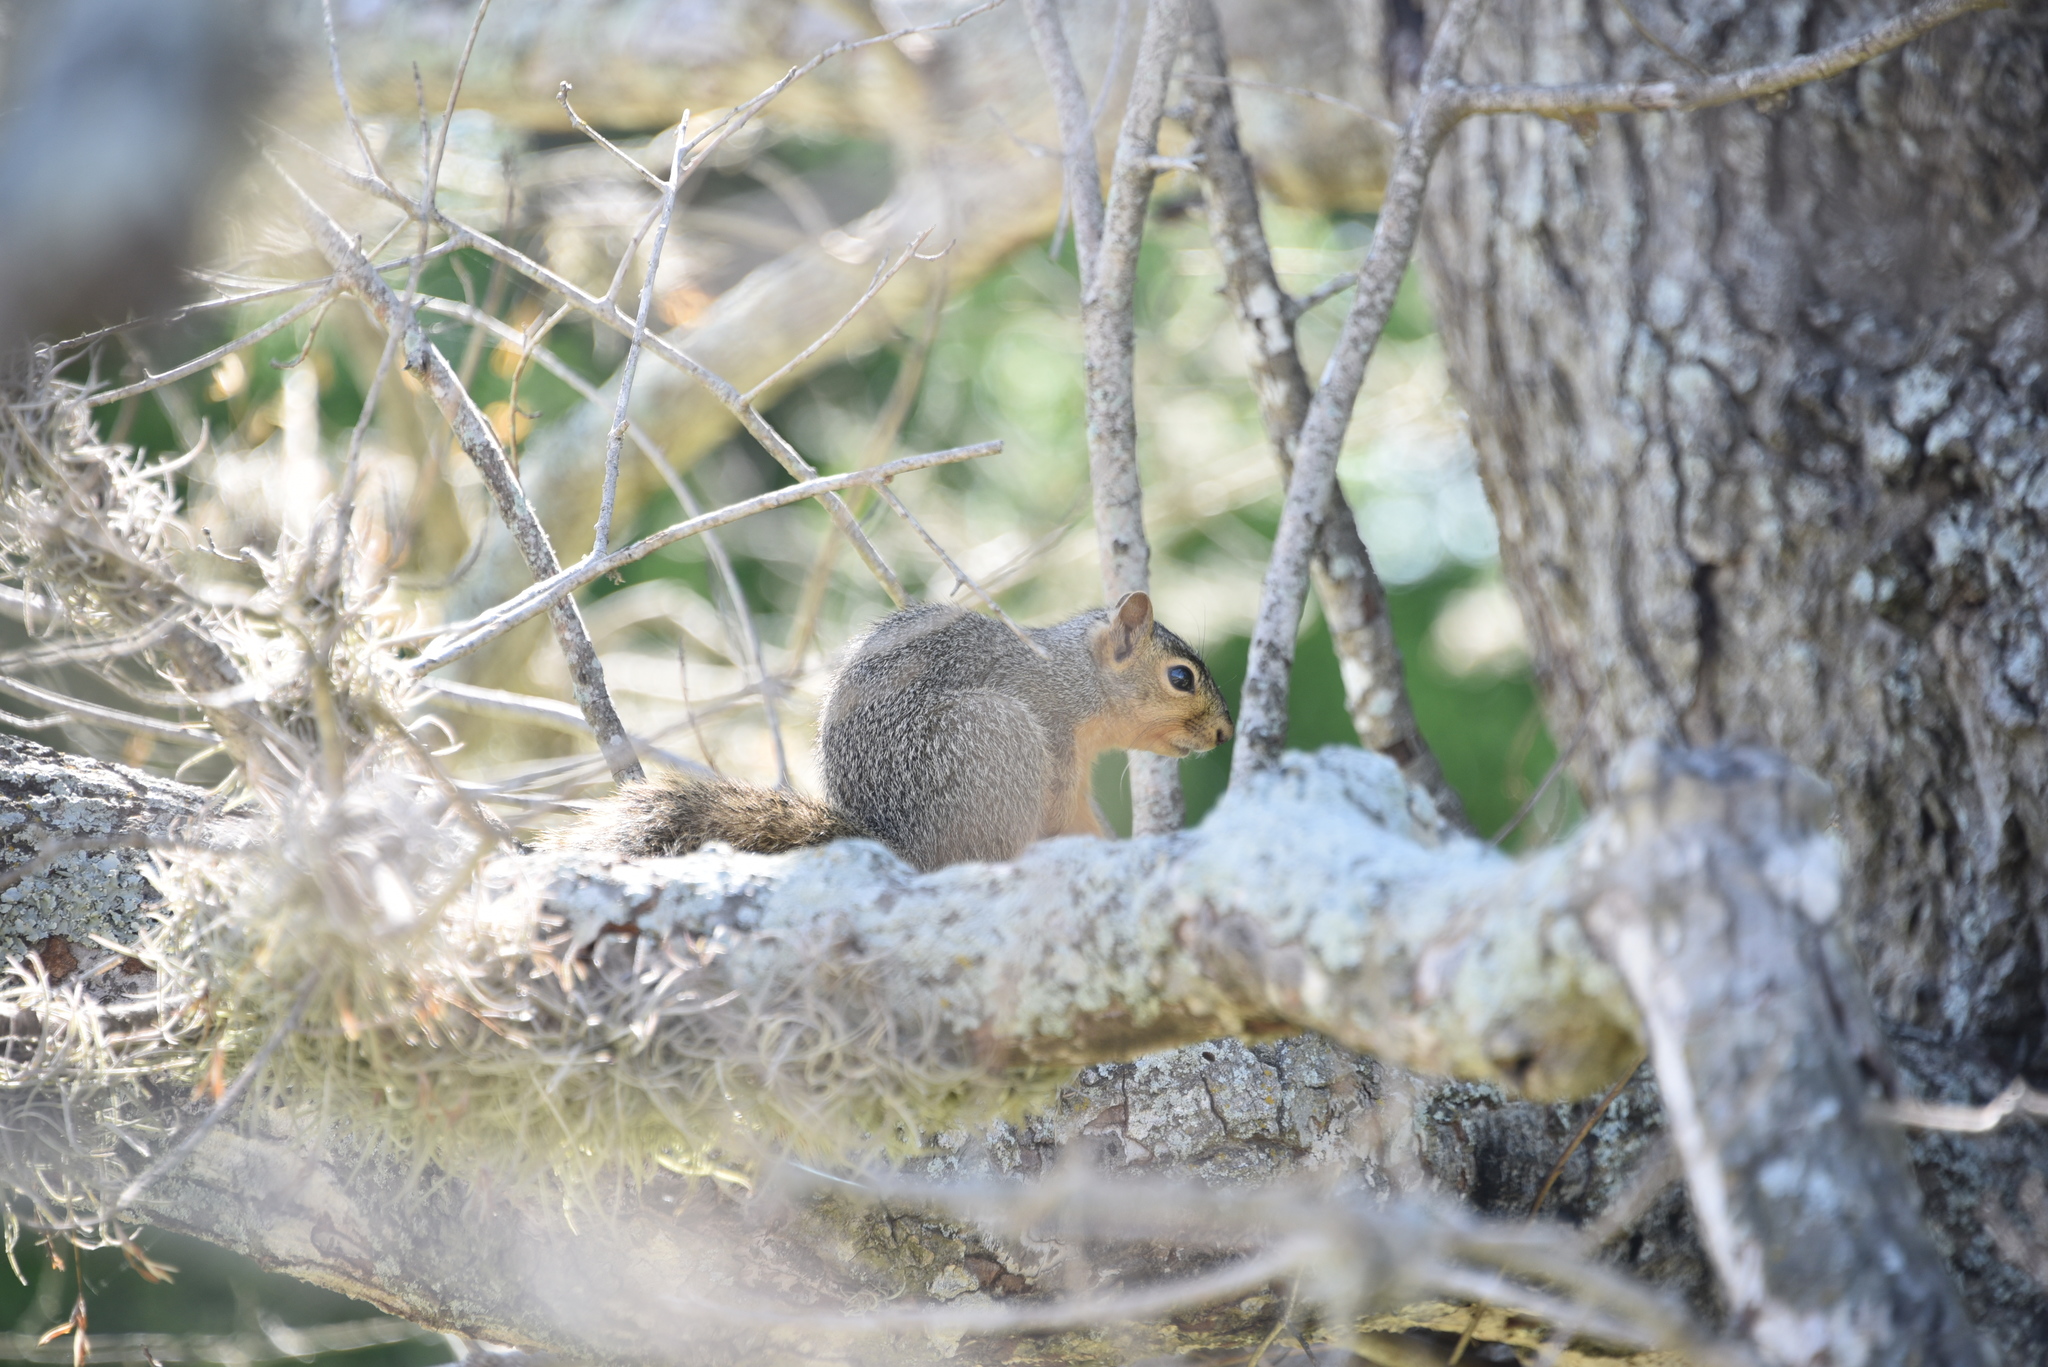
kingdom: Animalia
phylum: Chordata
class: Mammalia
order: Rodentia
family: Sciuridae
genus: Sciurus
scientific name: Sciurus niger
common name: Fox squirrel
